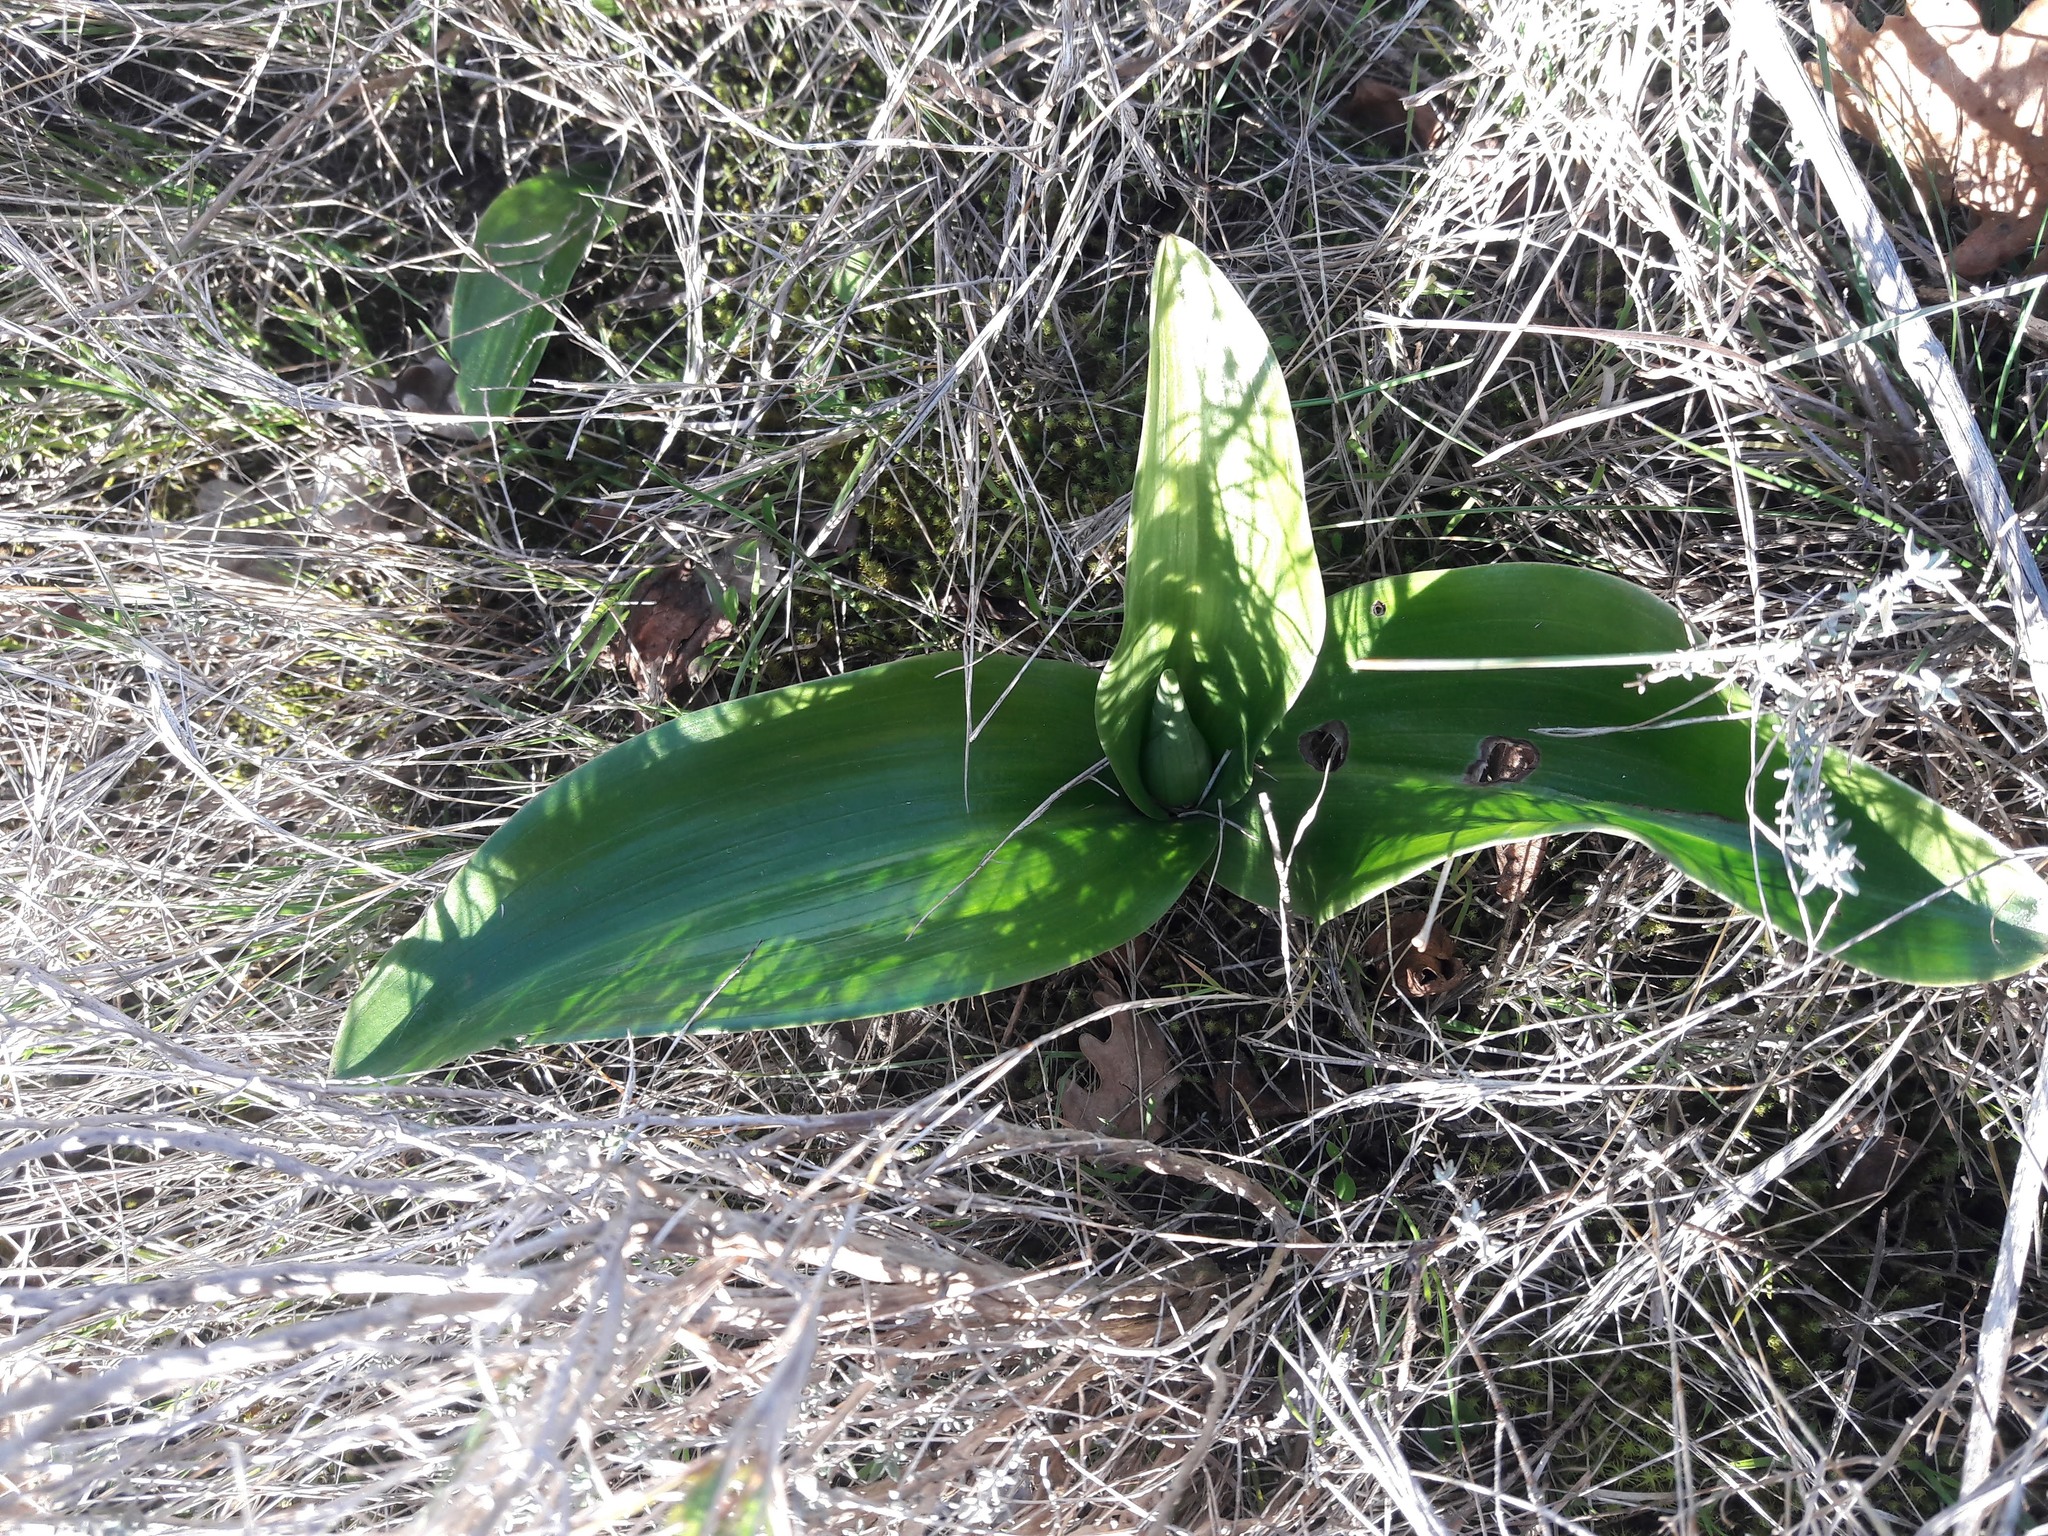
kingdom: Plantae
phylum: Tracheophyta
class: Liliopsida
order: Asparagales
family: Orchidaceae
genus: Himantoglossum
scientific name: Himantoglossum robertianum
